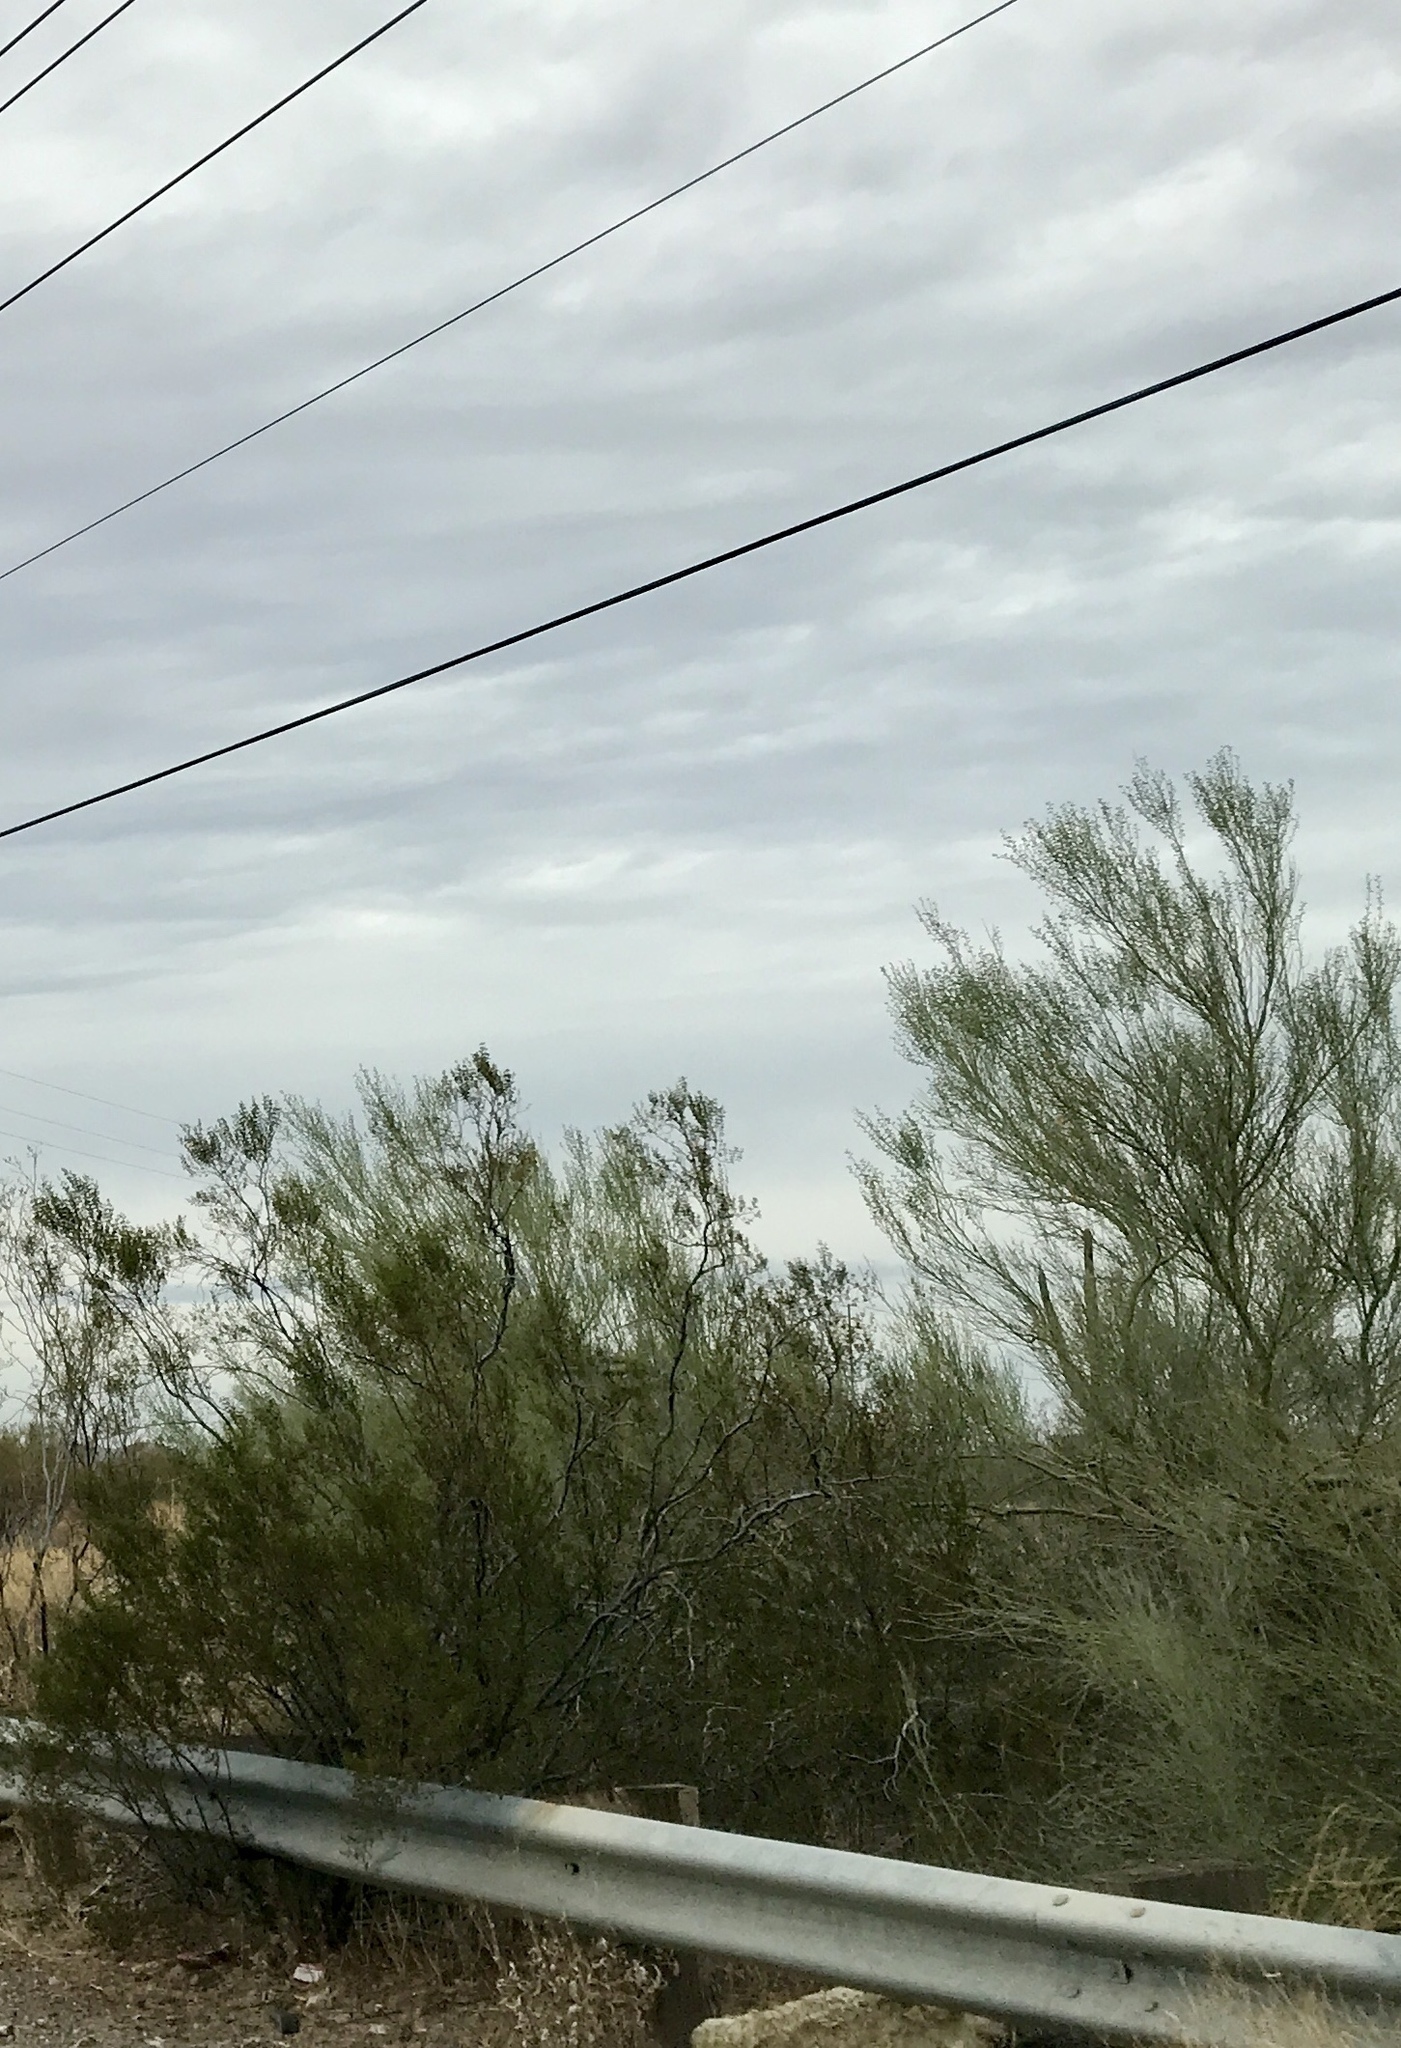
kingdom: Plantae
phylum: Tracheophyta
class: Magnoliopsida
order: Fabales
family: Fabaceae
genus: Parkinsonia
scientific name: Parkinsonia florida
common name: Blue paloverde
